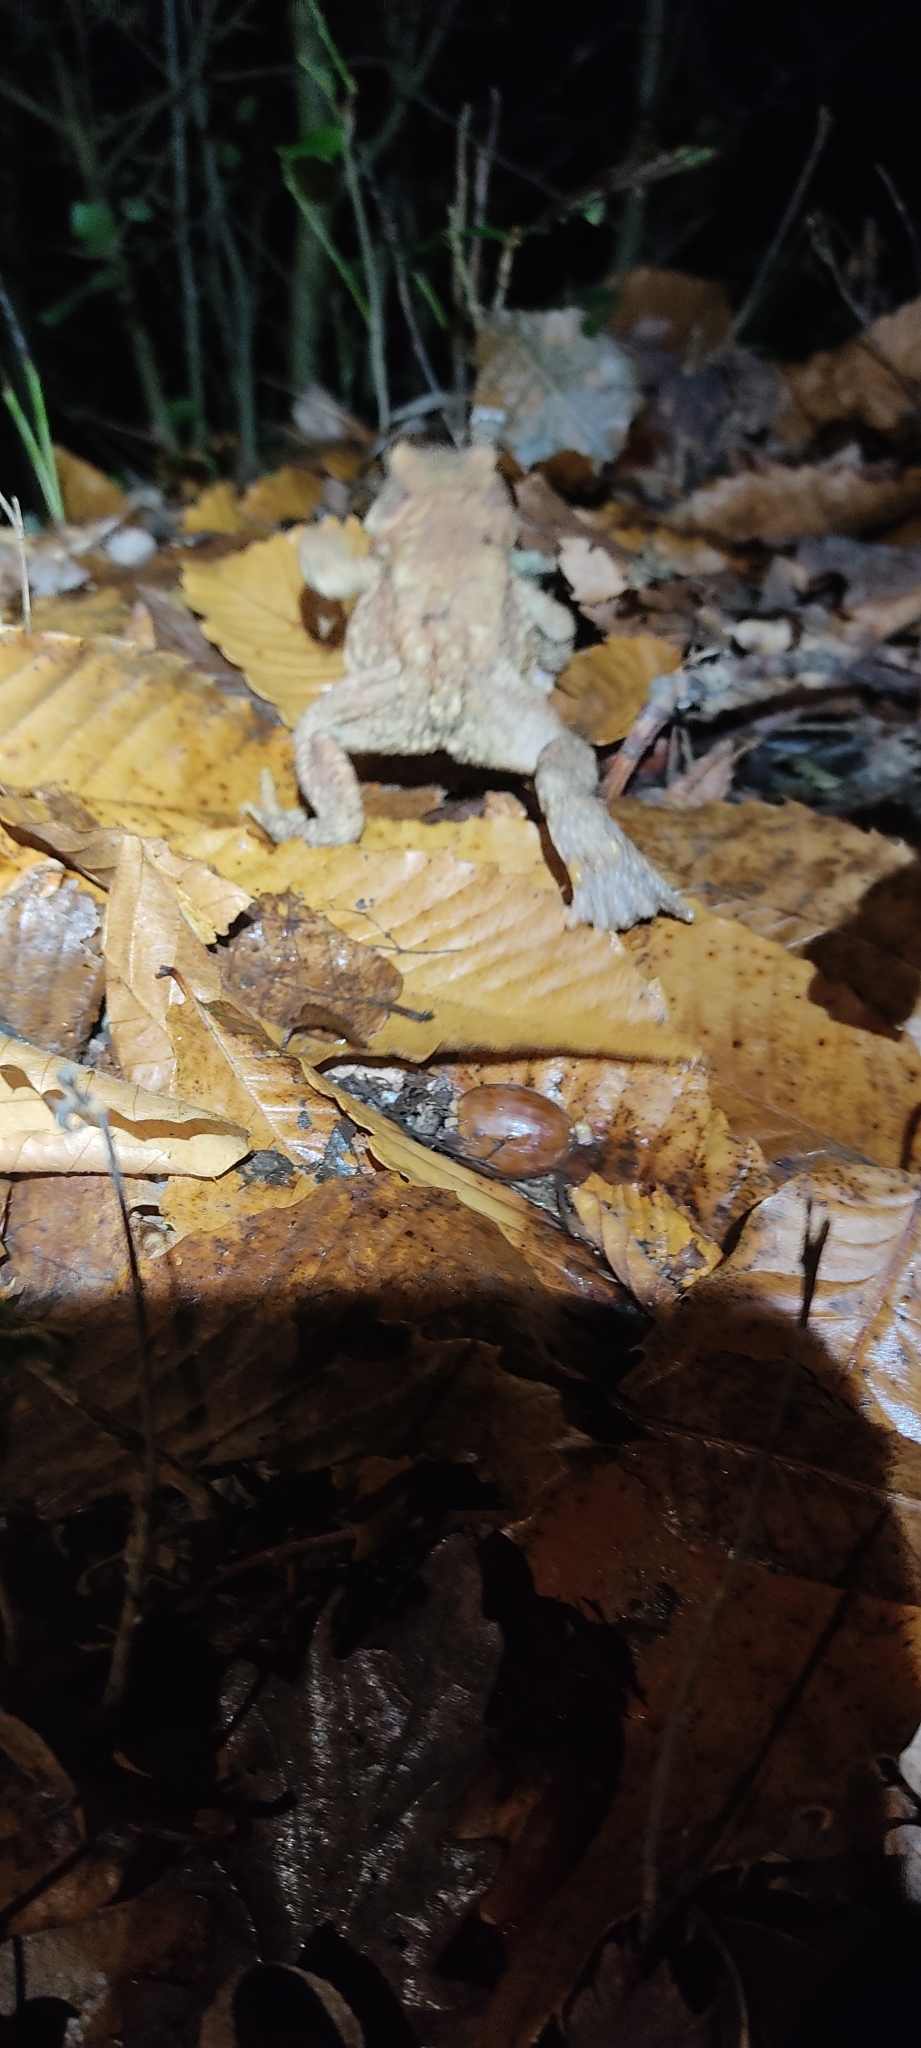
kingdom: Animalia
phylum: Chordata
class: Amphibia
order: Anura
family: Bufonidae
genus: Bufo
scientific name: Bufo spinosus
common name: Western common toad
